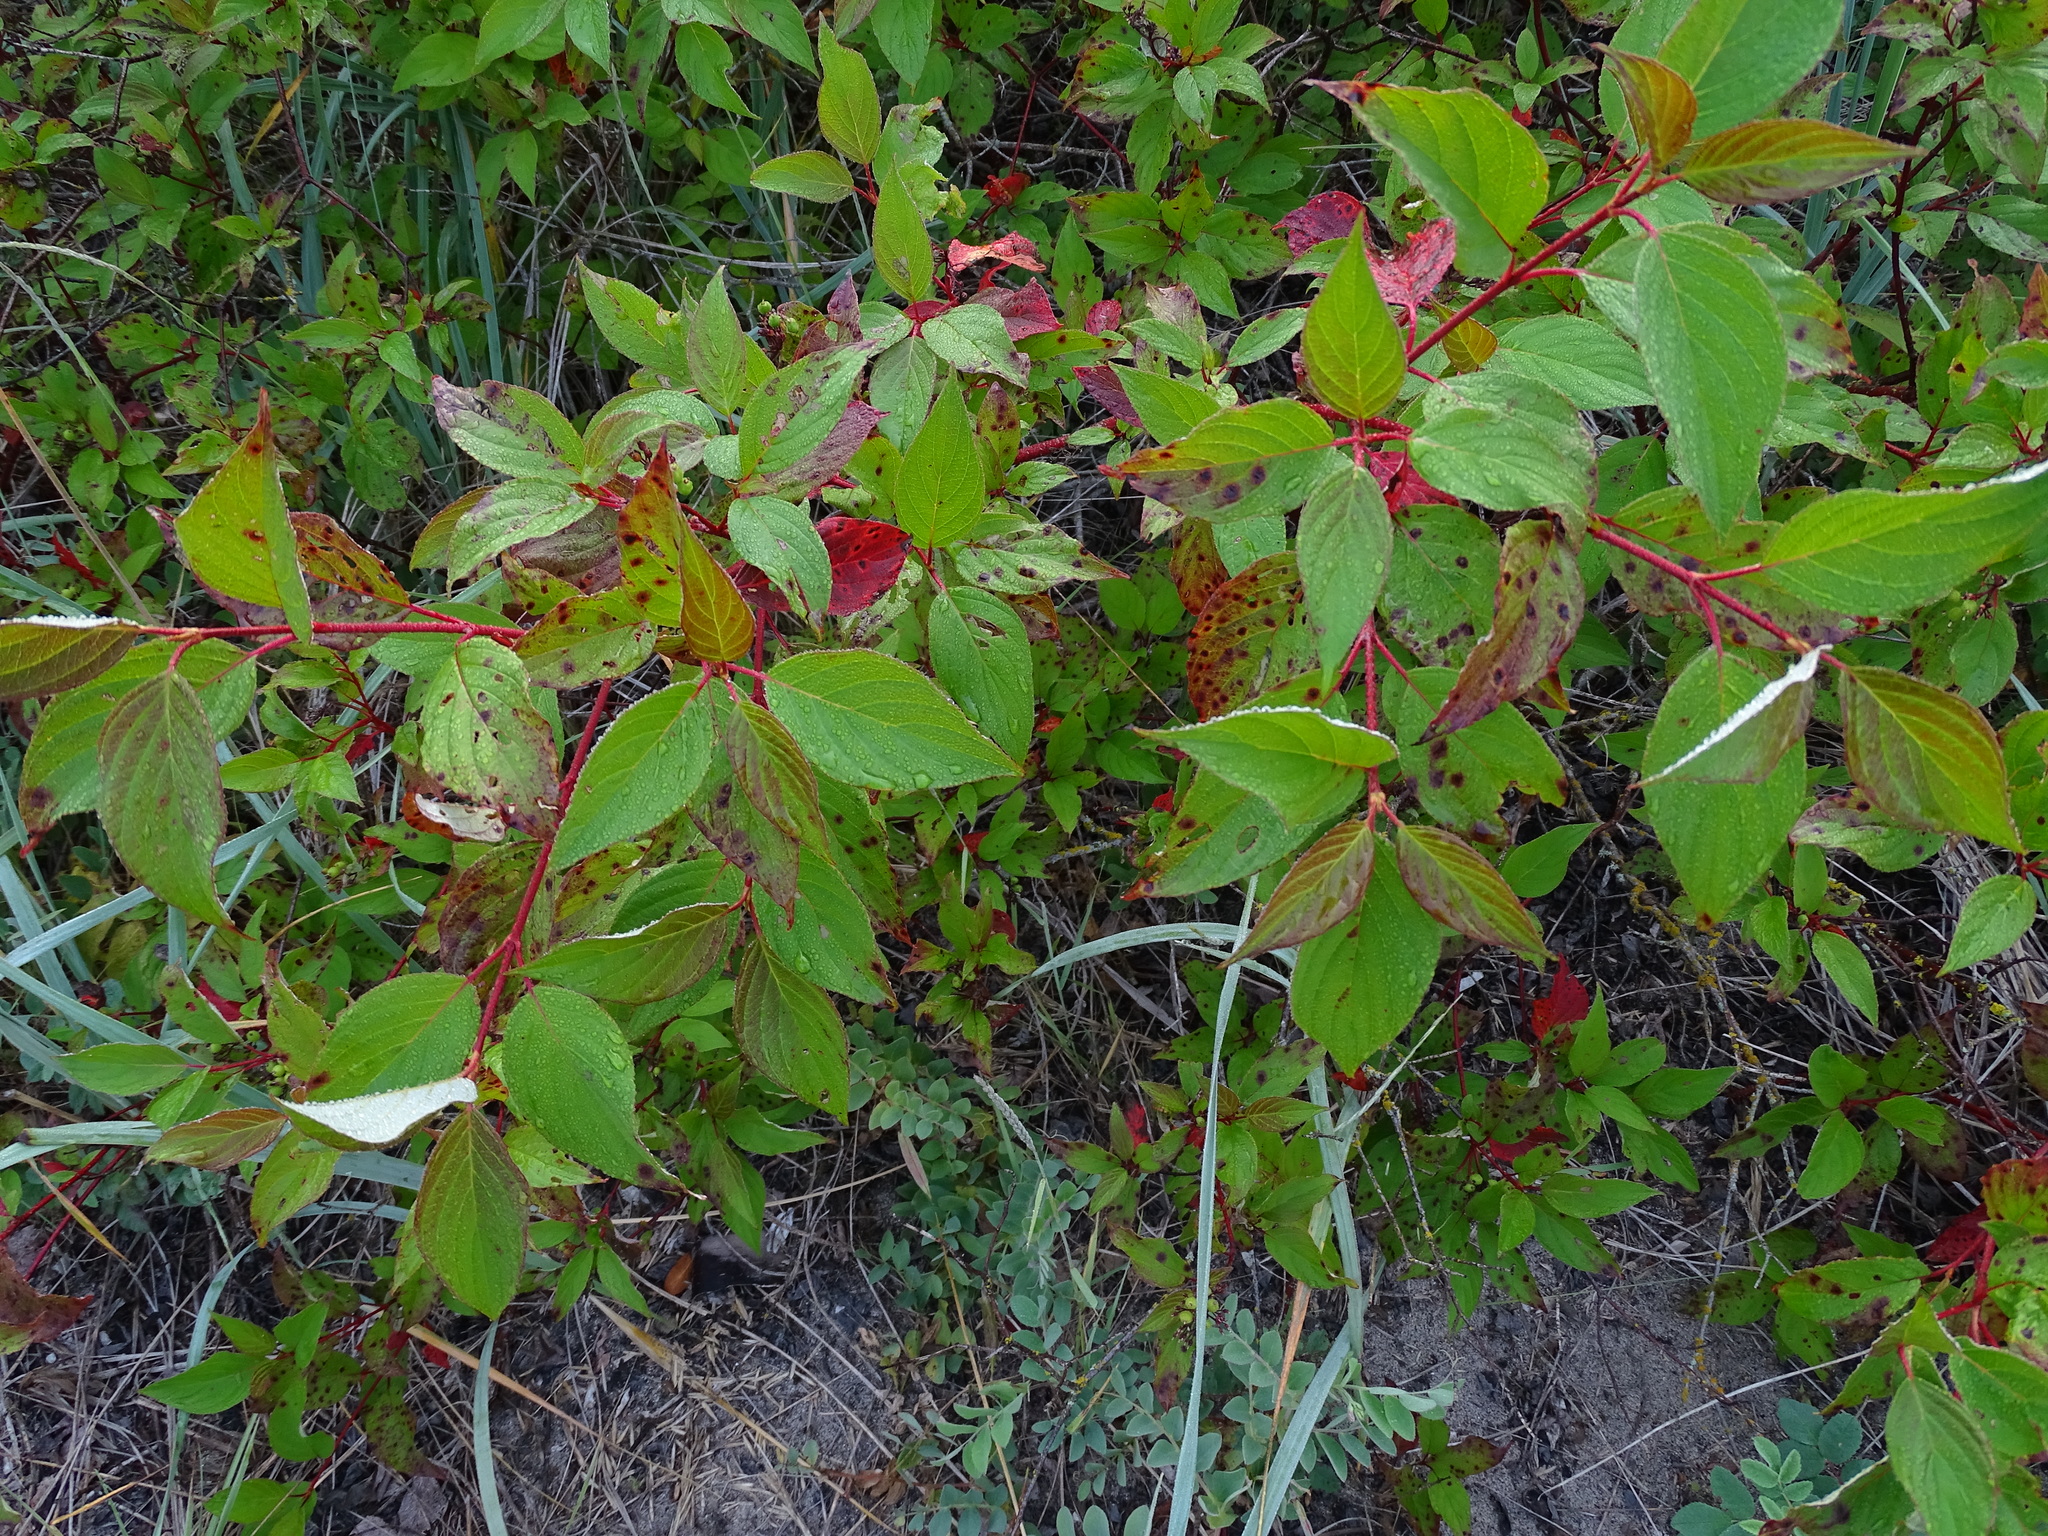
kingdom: Plantae
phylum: Tracheophyta
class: Magnoliopsida
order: Cornales
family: Cornaceae
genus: Cornus
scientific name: Cornus sericea
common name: Red-osier dogwood
